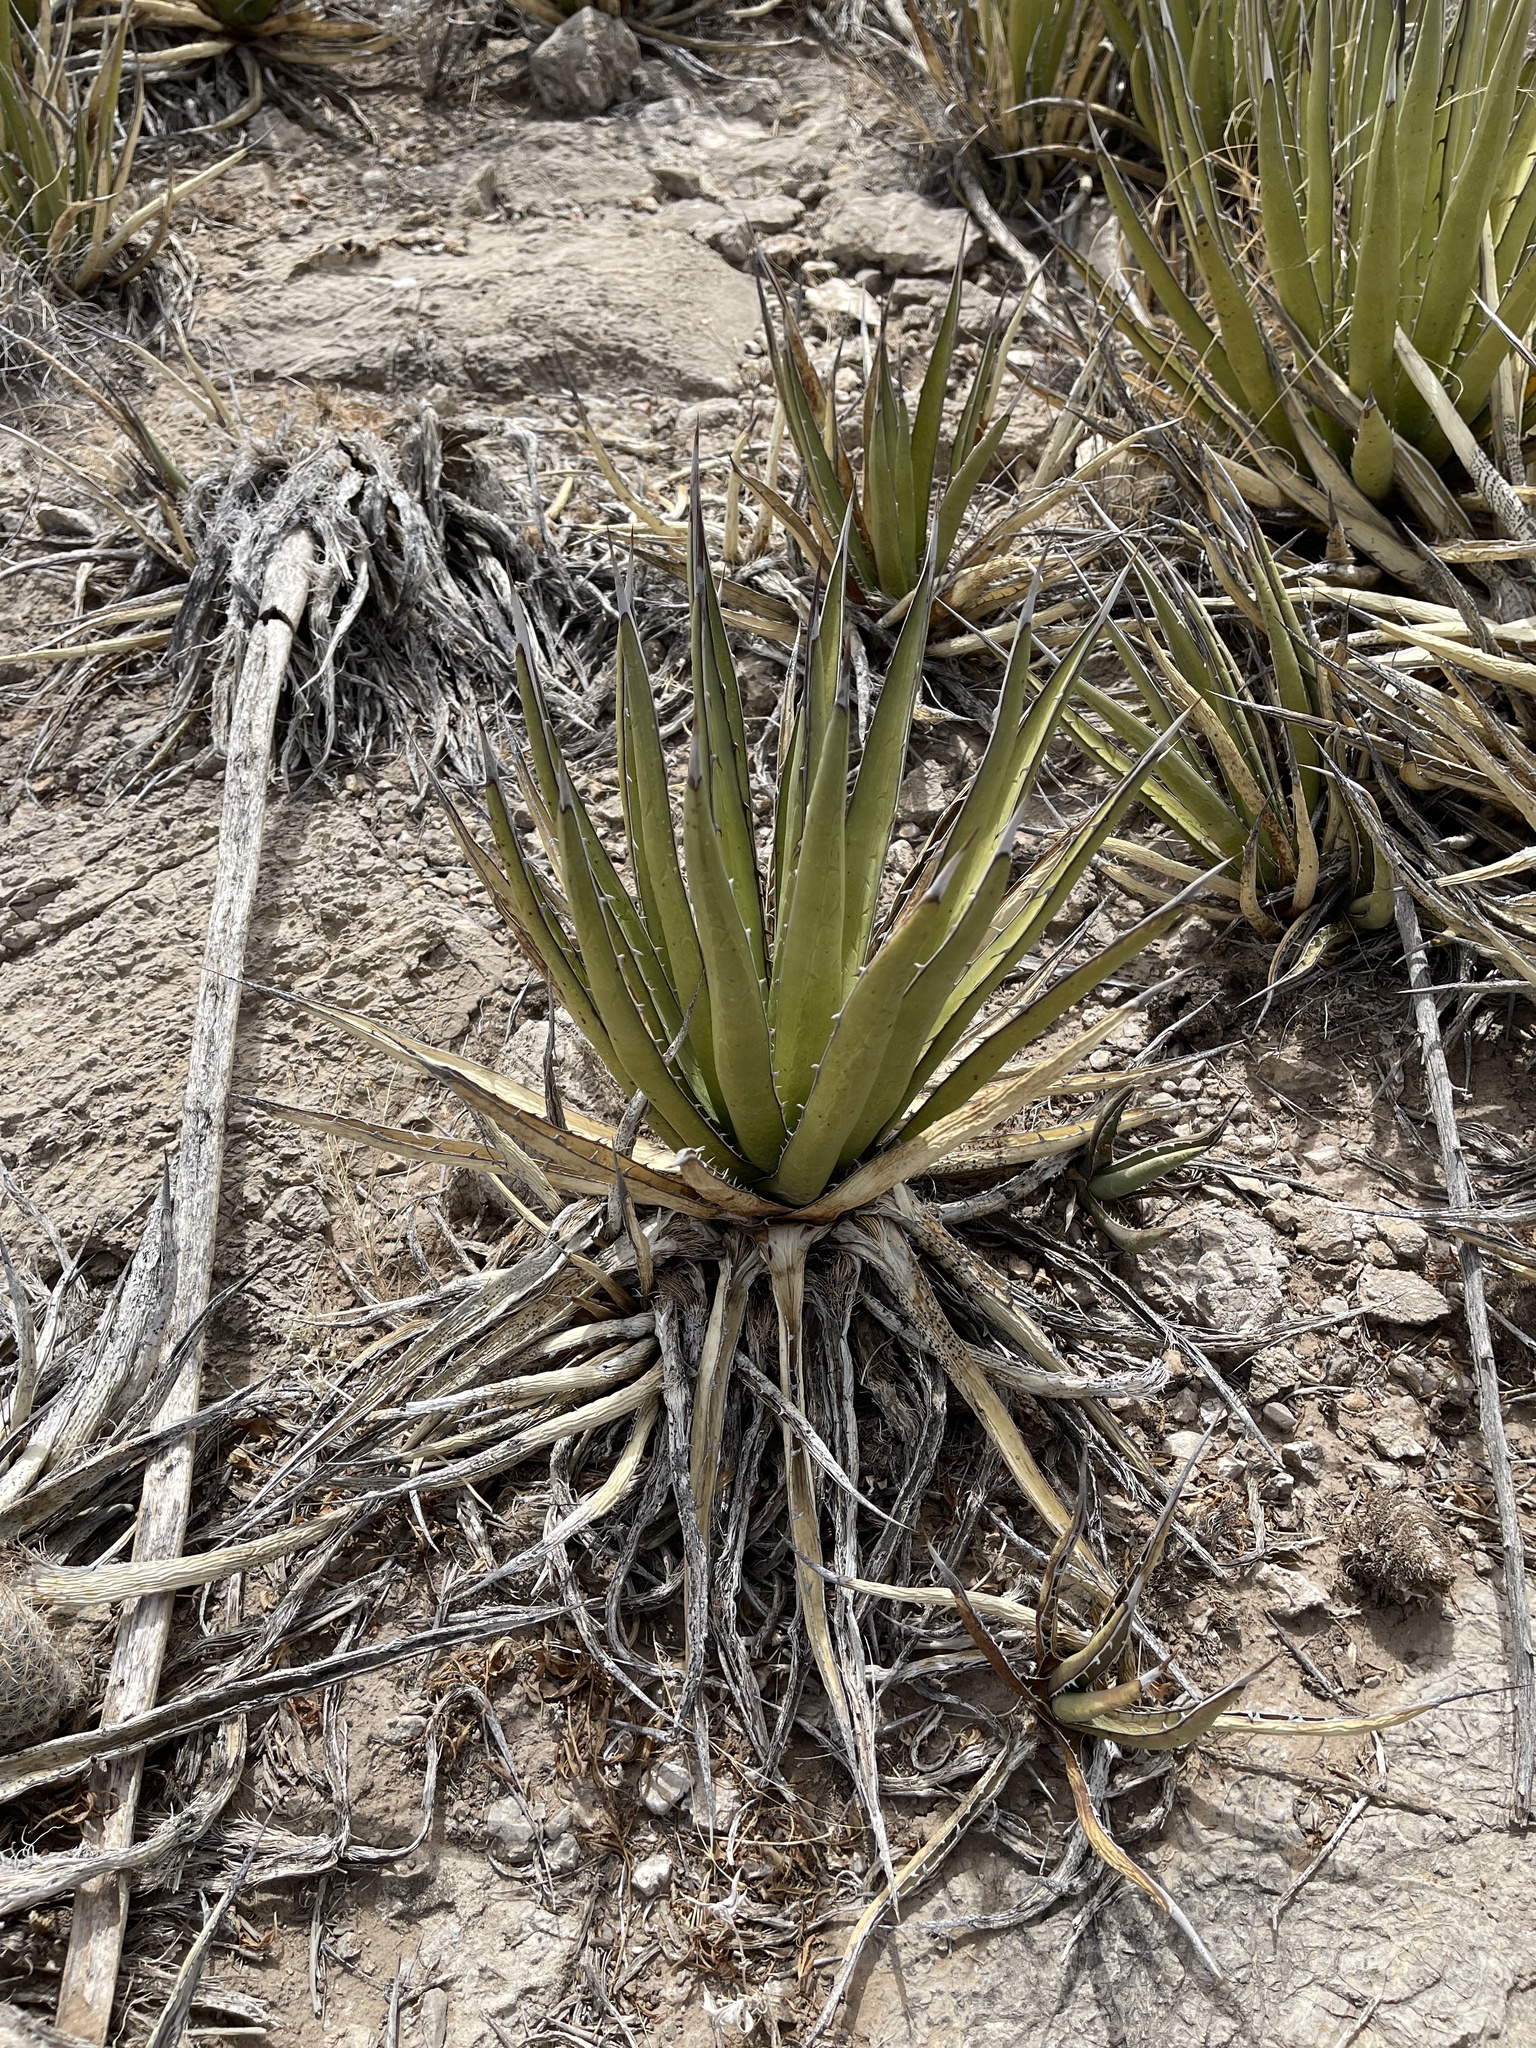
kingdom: Plantae
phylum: Tracheophyta
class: Liliopsida
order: Asparagales
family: Asparagaceae
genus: Agave
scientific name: Agave lechuguilla
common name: Lecheguilla agave
